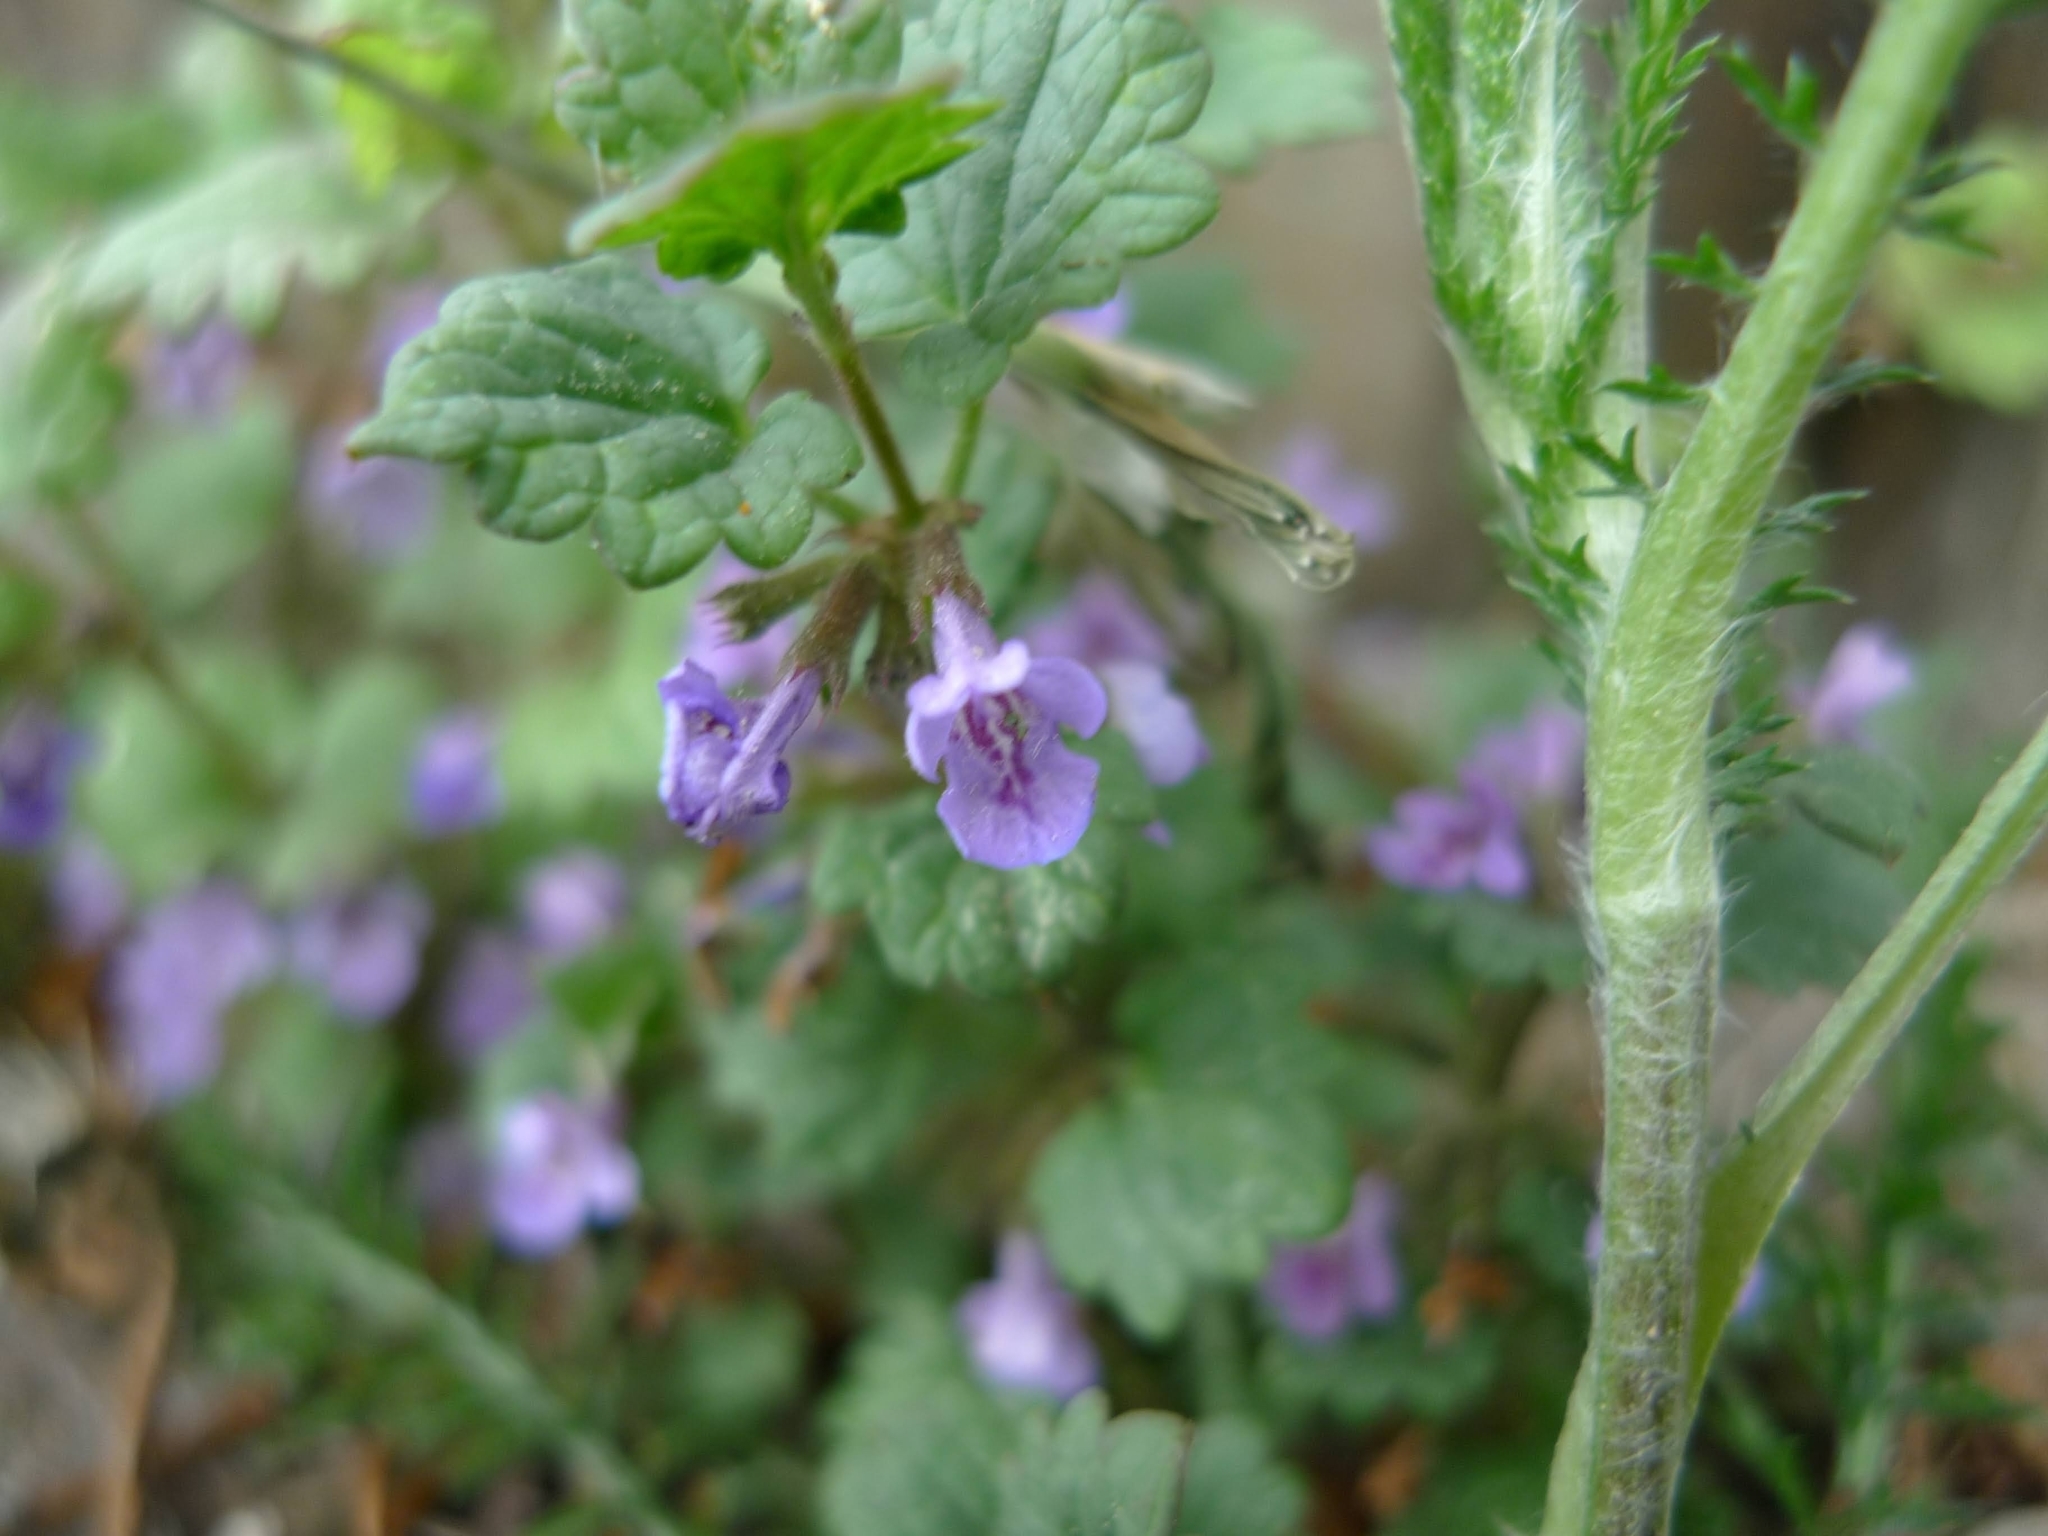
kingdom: Plantae
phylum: Tracheophyta
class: Magnoliopsida
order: Lamiales
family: Lamiaceae
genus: Glechoma
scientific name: Glechoma hederacea
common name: Ground ivy
